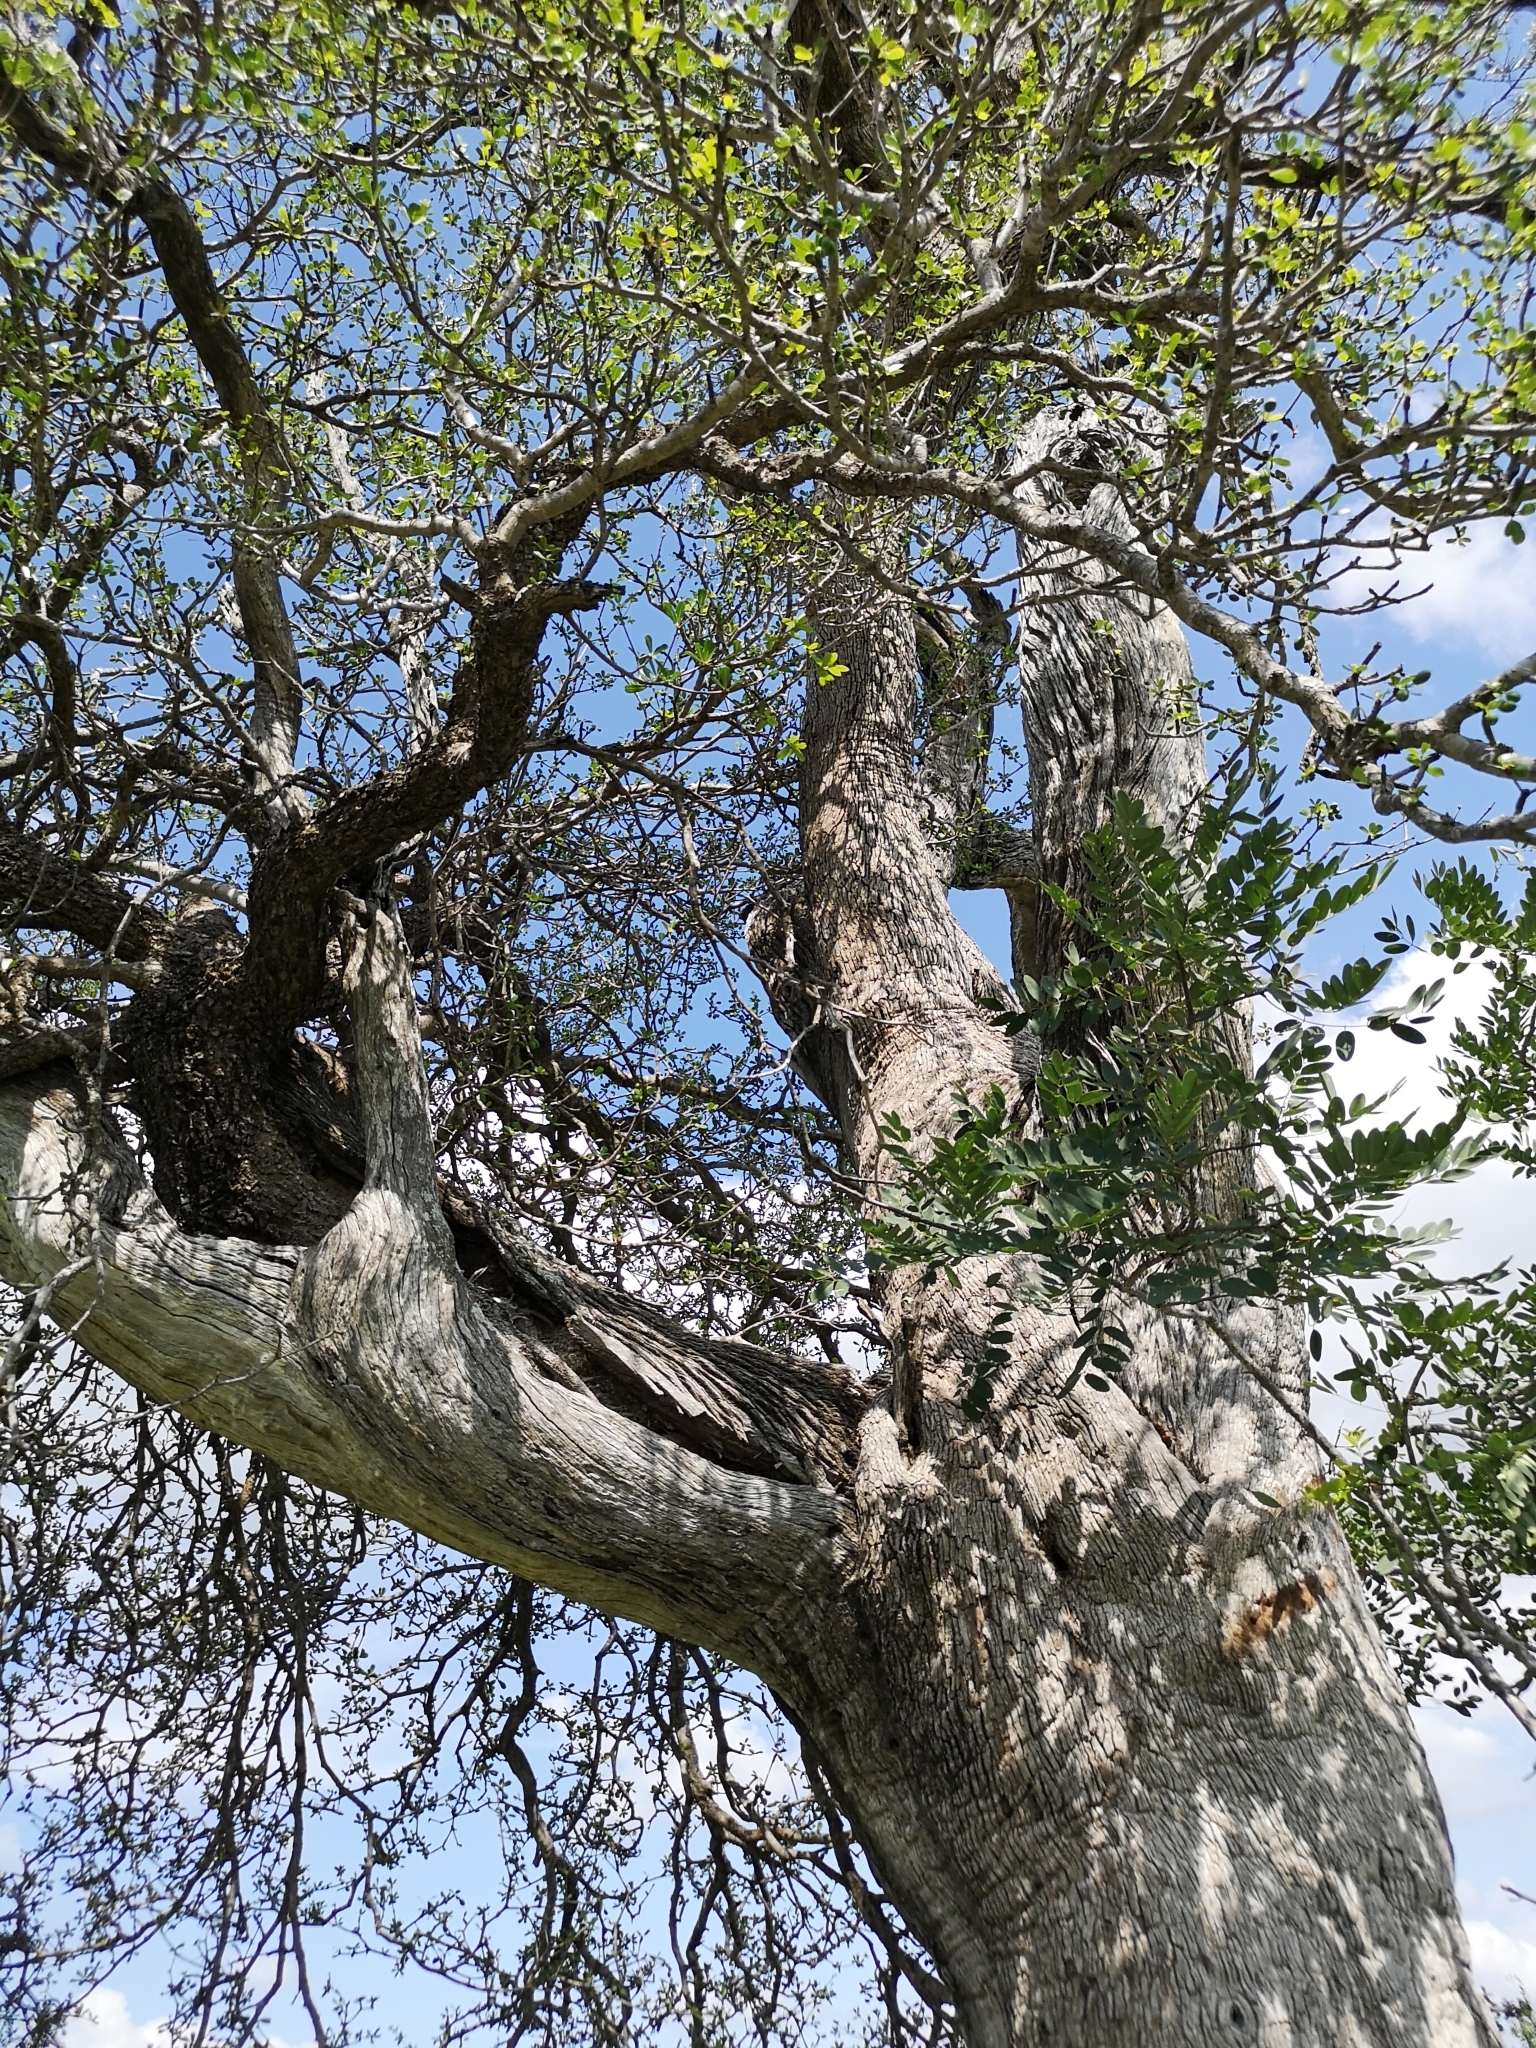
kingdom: Plantae
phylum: Tracheophyta
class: Magnoliopsida
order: Myrtales
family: Combretaceae
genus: Combretum
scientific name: Combretum imberbe
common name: Leadwood
